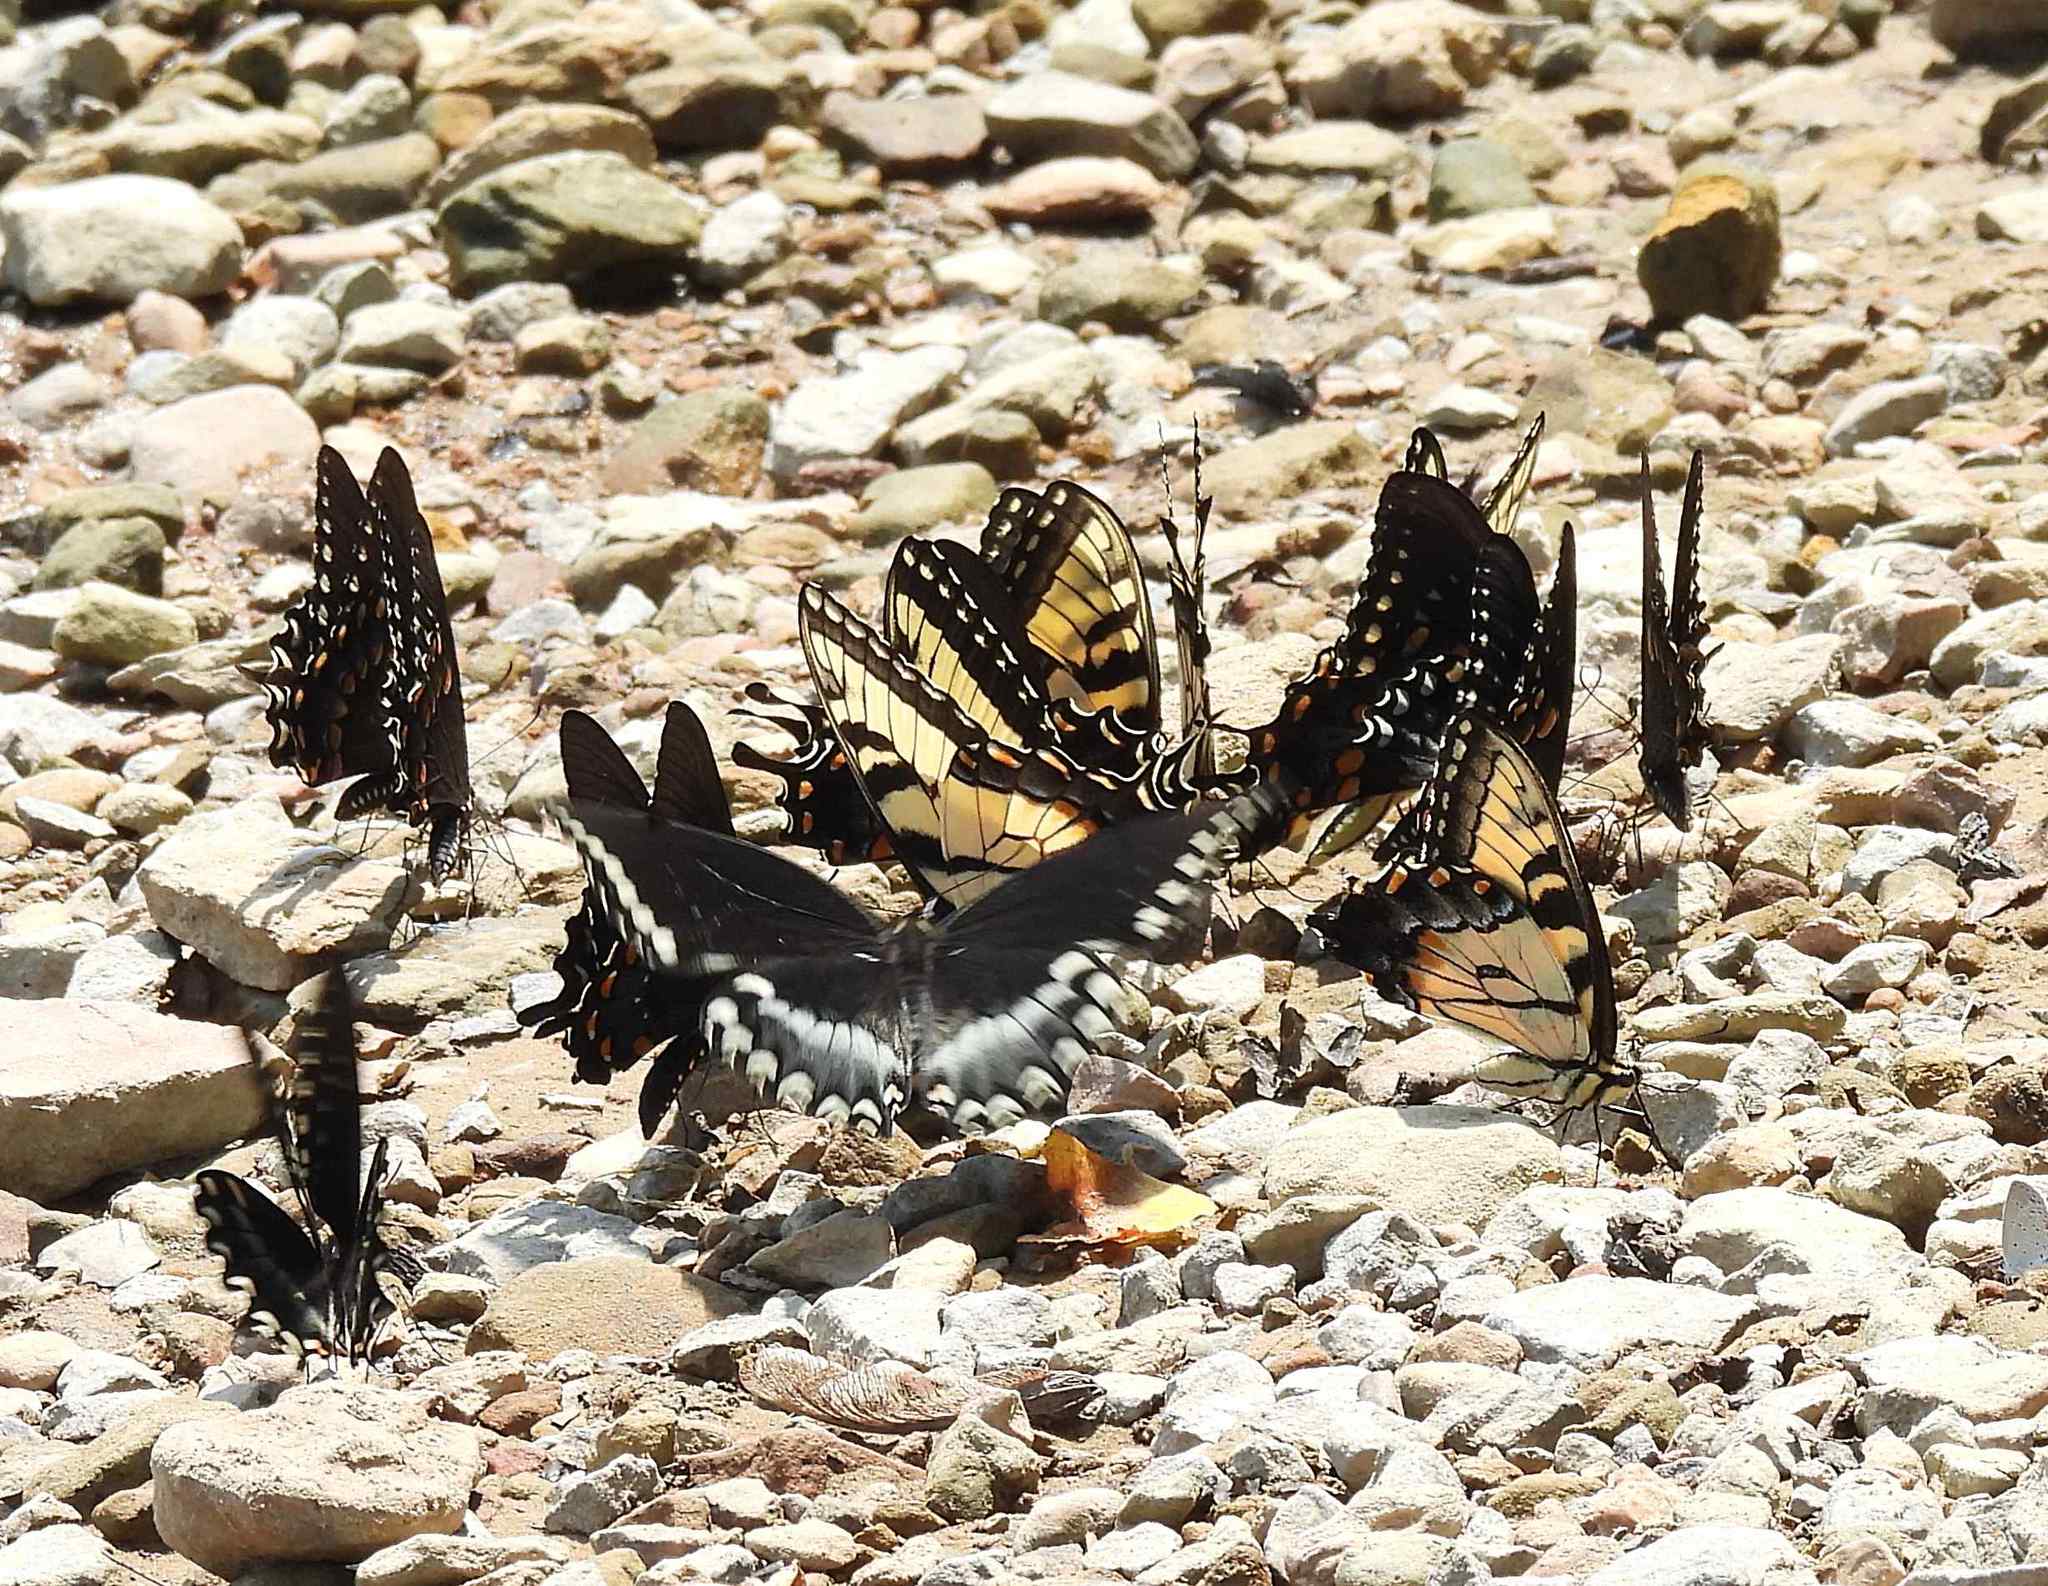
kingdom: Animalia
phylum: Arthropoda
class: Insecta
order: Lepidoptera
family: Papilionidae
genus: Papilio
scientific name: Papilio troilus
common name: Spicebush swallowtail
